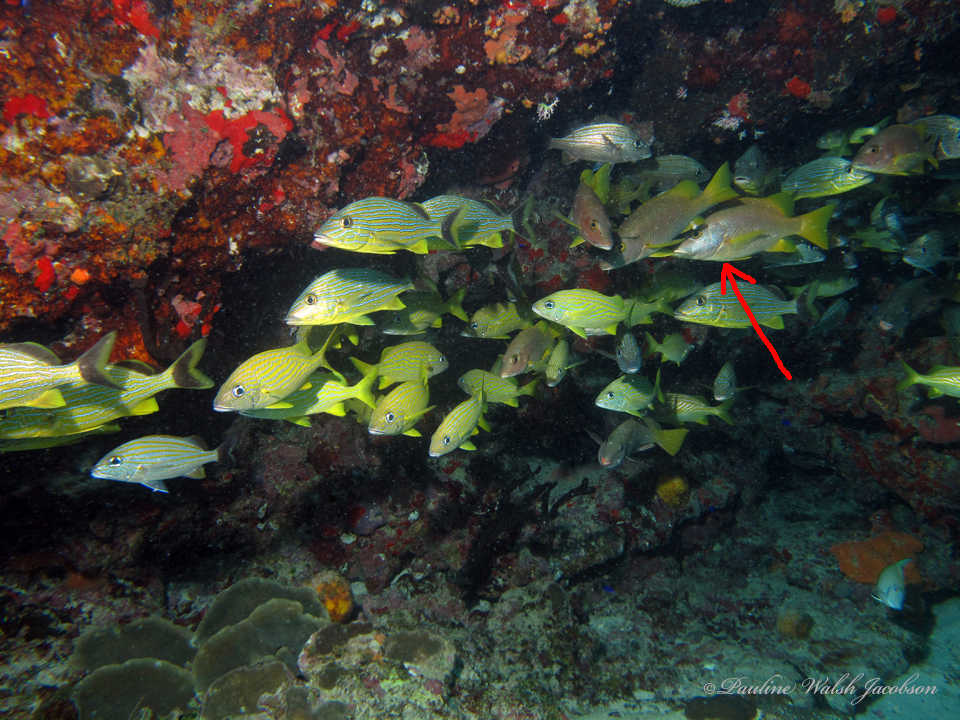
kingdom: Animalia
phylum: Chordata
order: Perciformes
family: Lutjanidae
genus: Lutjanus
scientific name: Lutjanus apodus
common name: Schoolmaster
